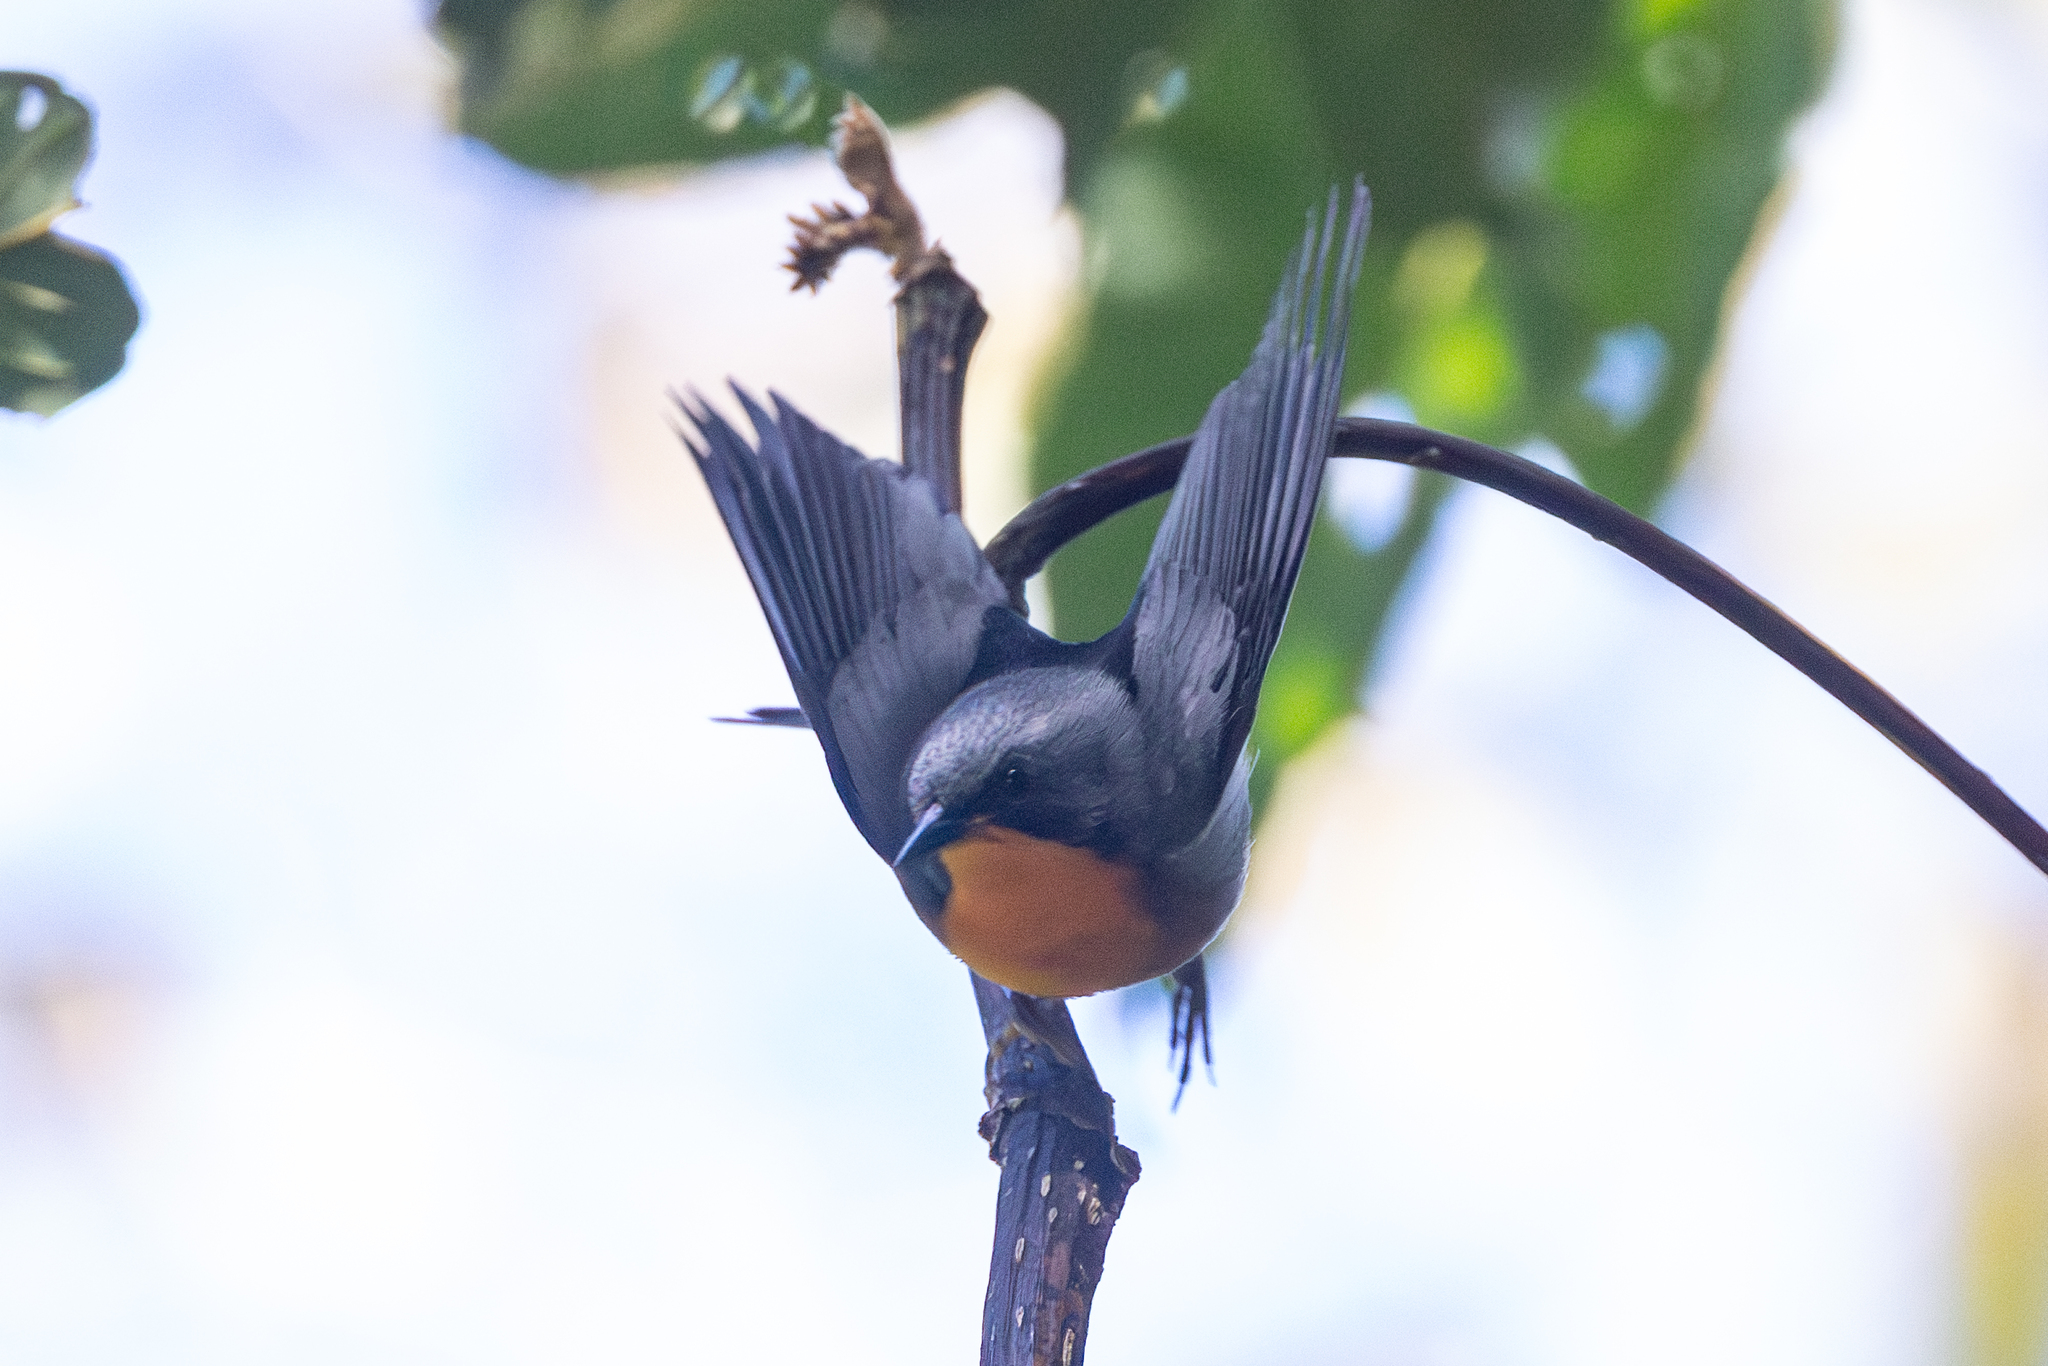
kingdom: Animalia
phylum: Chordata
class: Aves
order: Passeriformes
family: Parulidae
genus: Oreothlypis
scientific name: Oreothlypis gutturalis
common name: Flame-throated warbler
